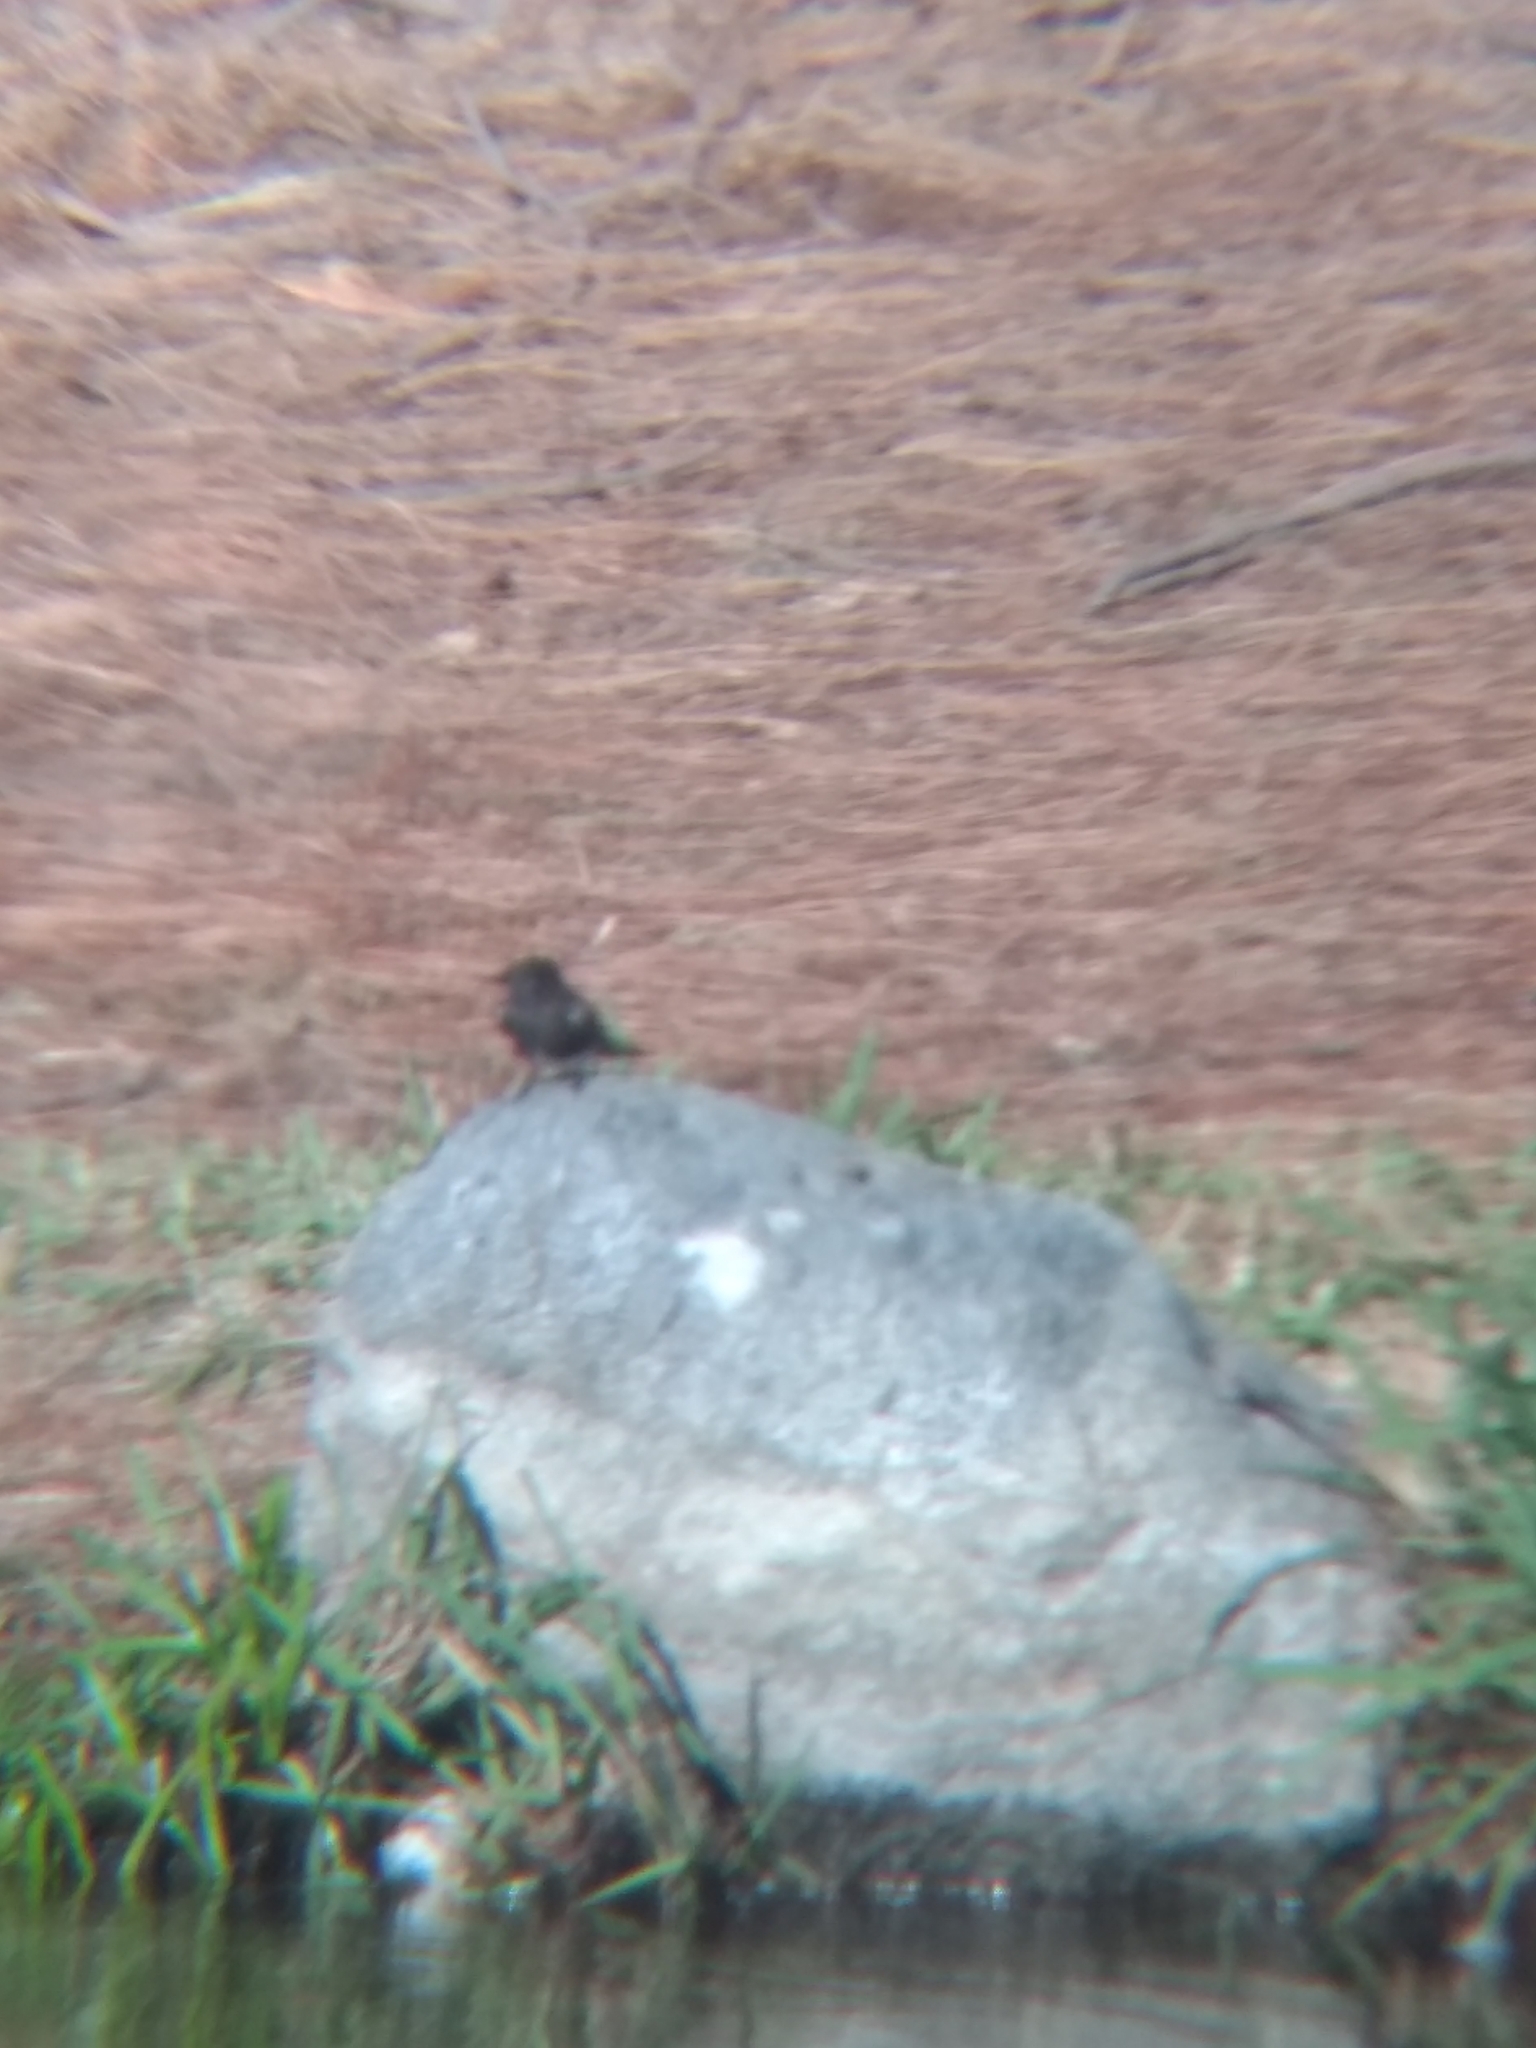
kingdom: Animalia
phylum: Chordata
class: Aves
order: Passeriformes
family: Tyrannidae
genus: Sayornis
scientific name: Sayornis nigricans
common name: Black phoebe
